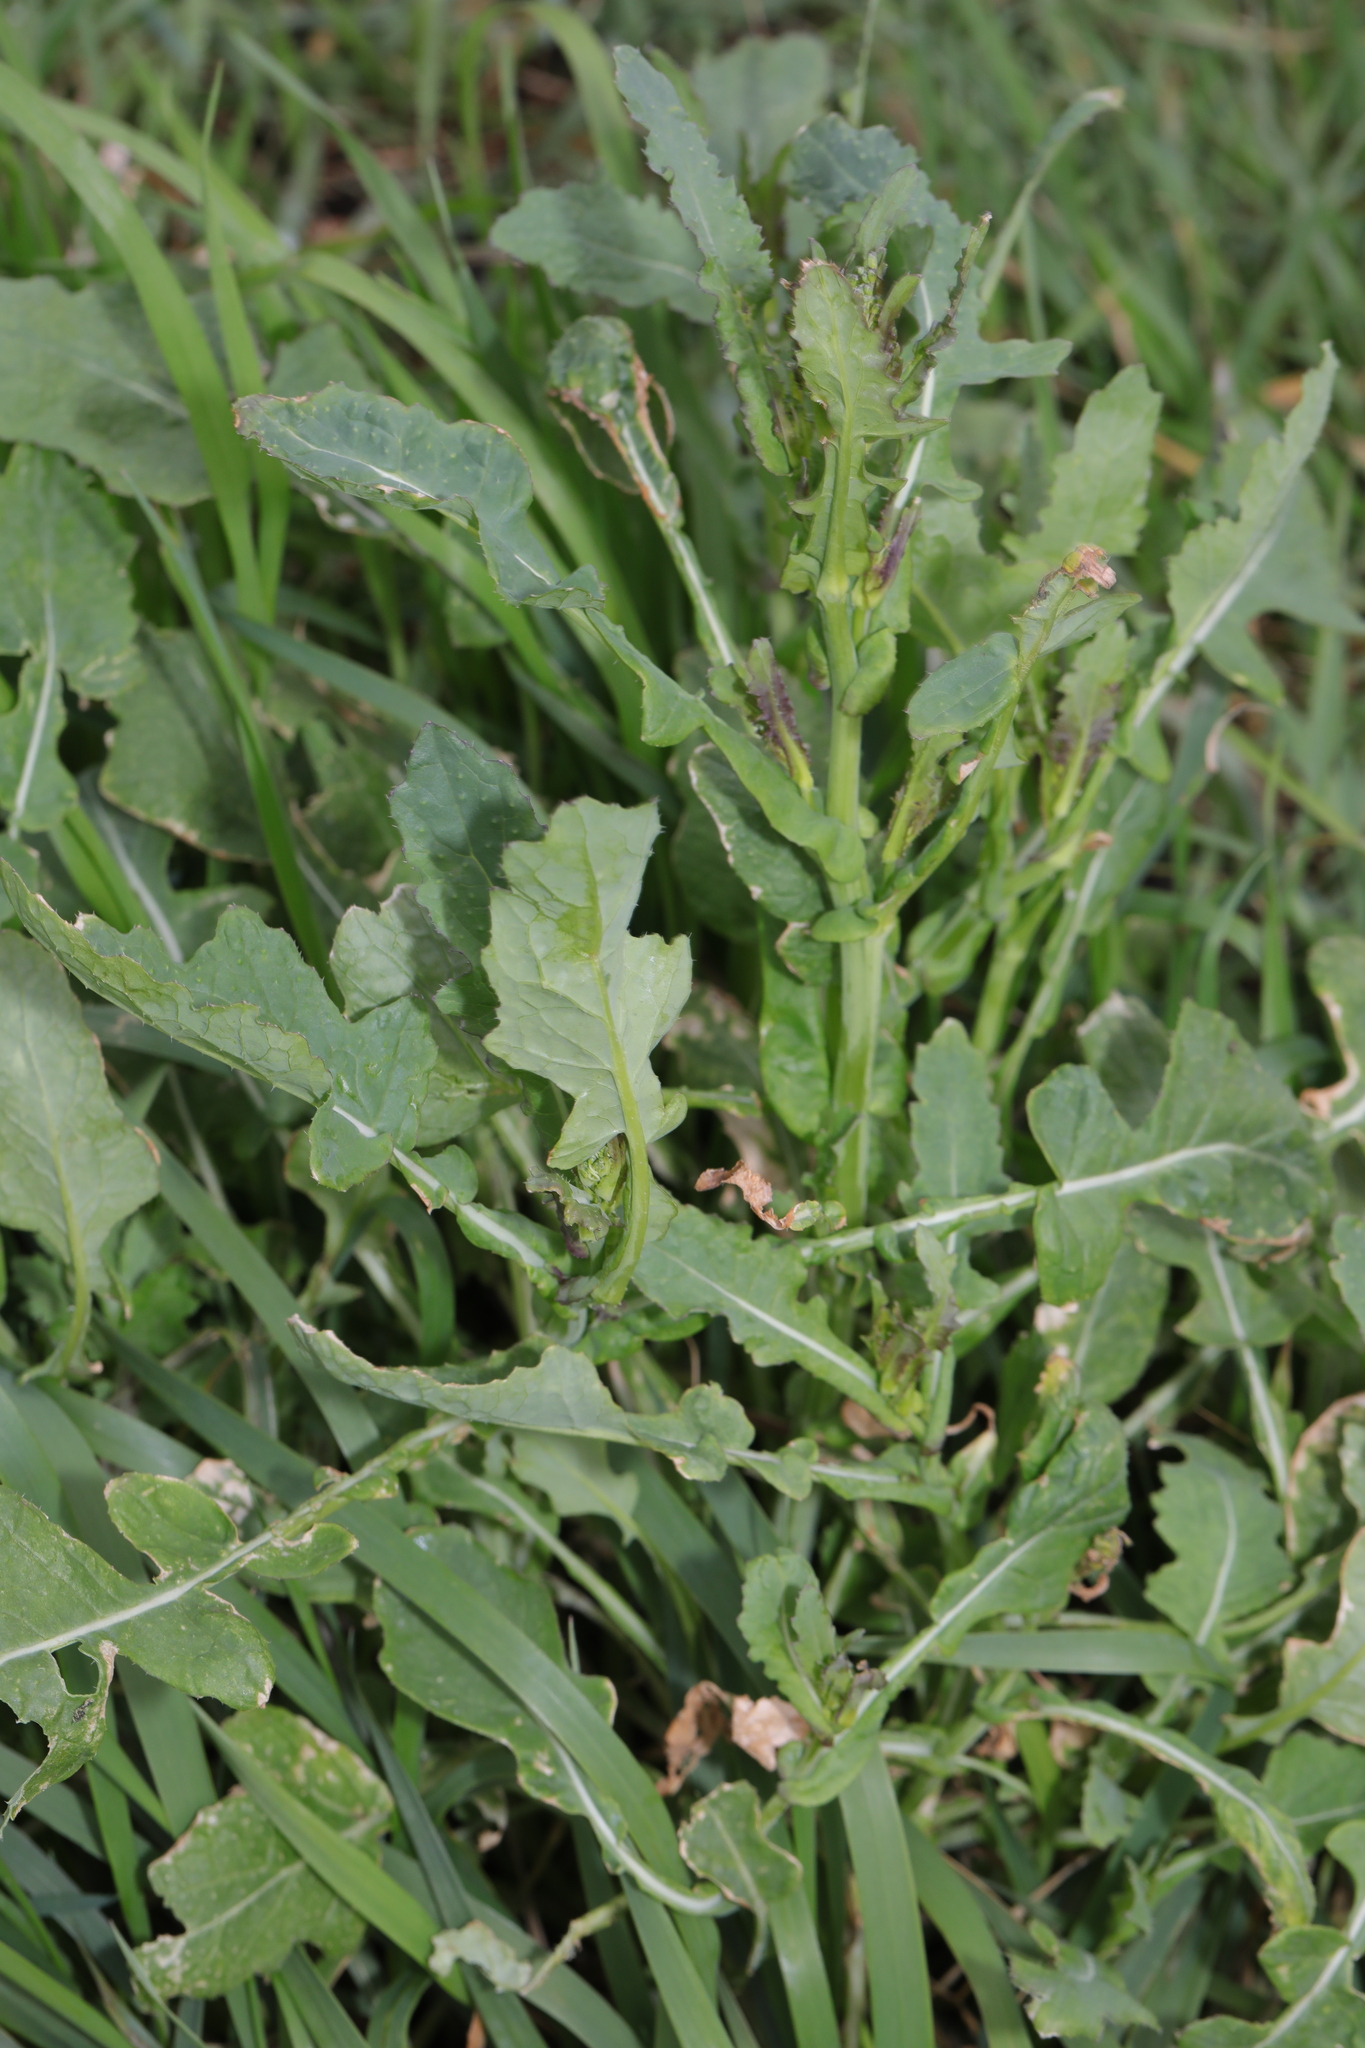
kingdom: Plantae
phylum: Tracheophyta
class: Magnoliopsida
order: Brassicales
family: Brassicaceae
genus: Brassica
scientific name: Brassica rapa
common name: Field mustard
